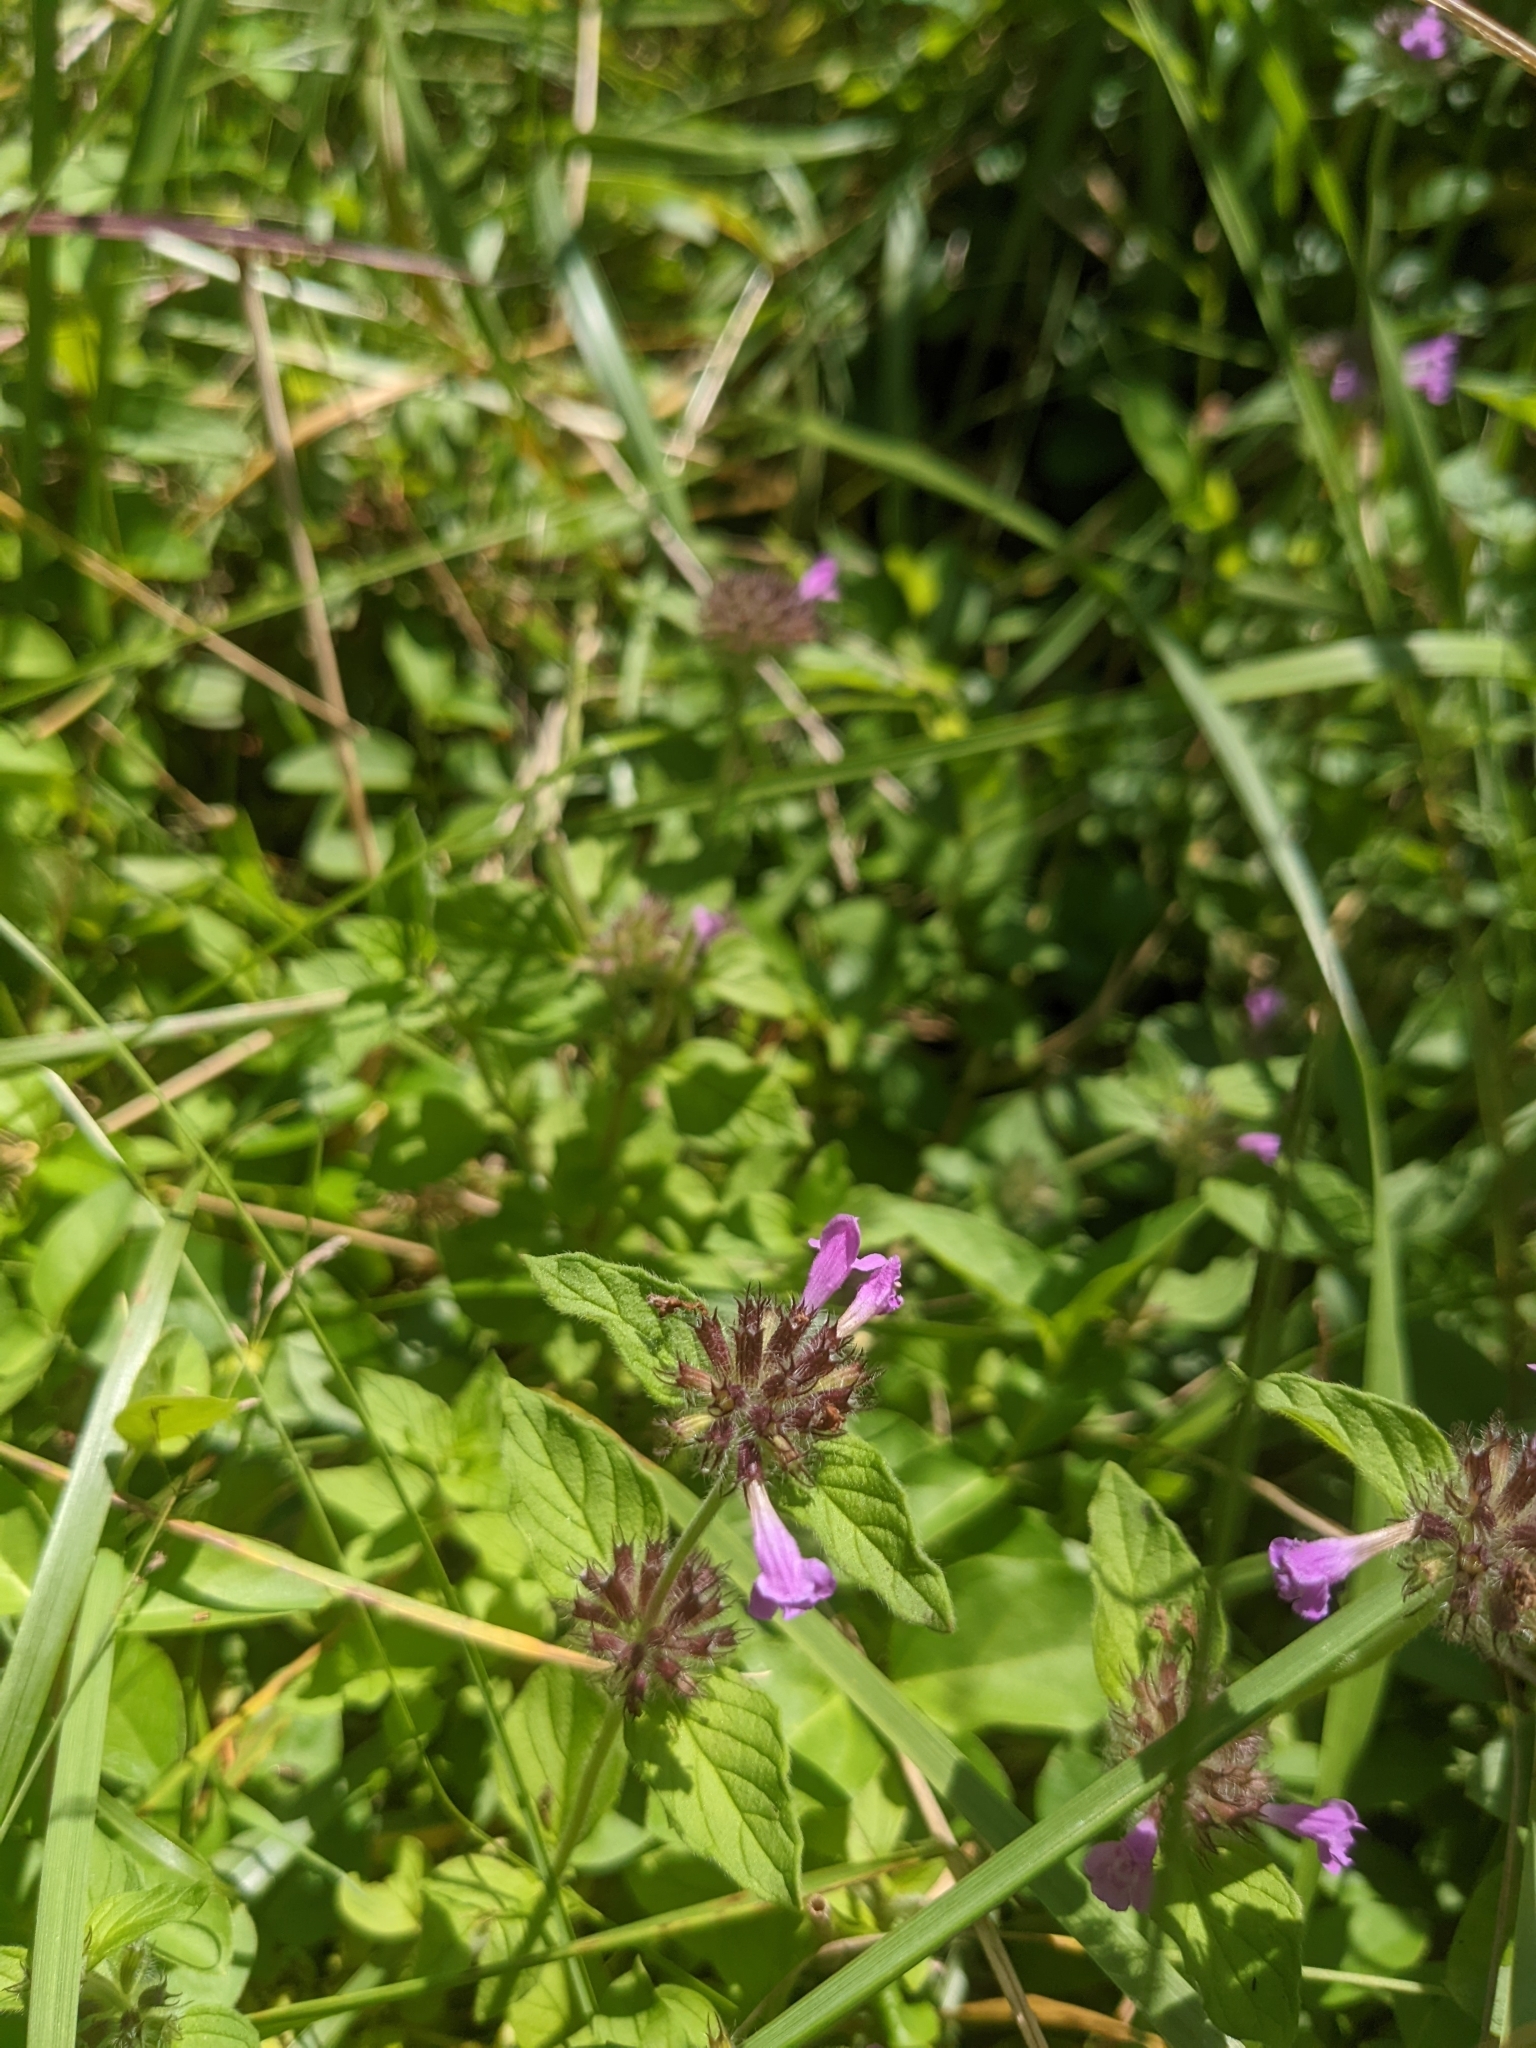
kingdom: Plantae
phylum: Tracheophyta
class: Magnoliopsida
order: Lamiales
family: Lamiaceae
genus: Clinopodium
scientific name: Clinopodium vulgare
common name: Wild basil
